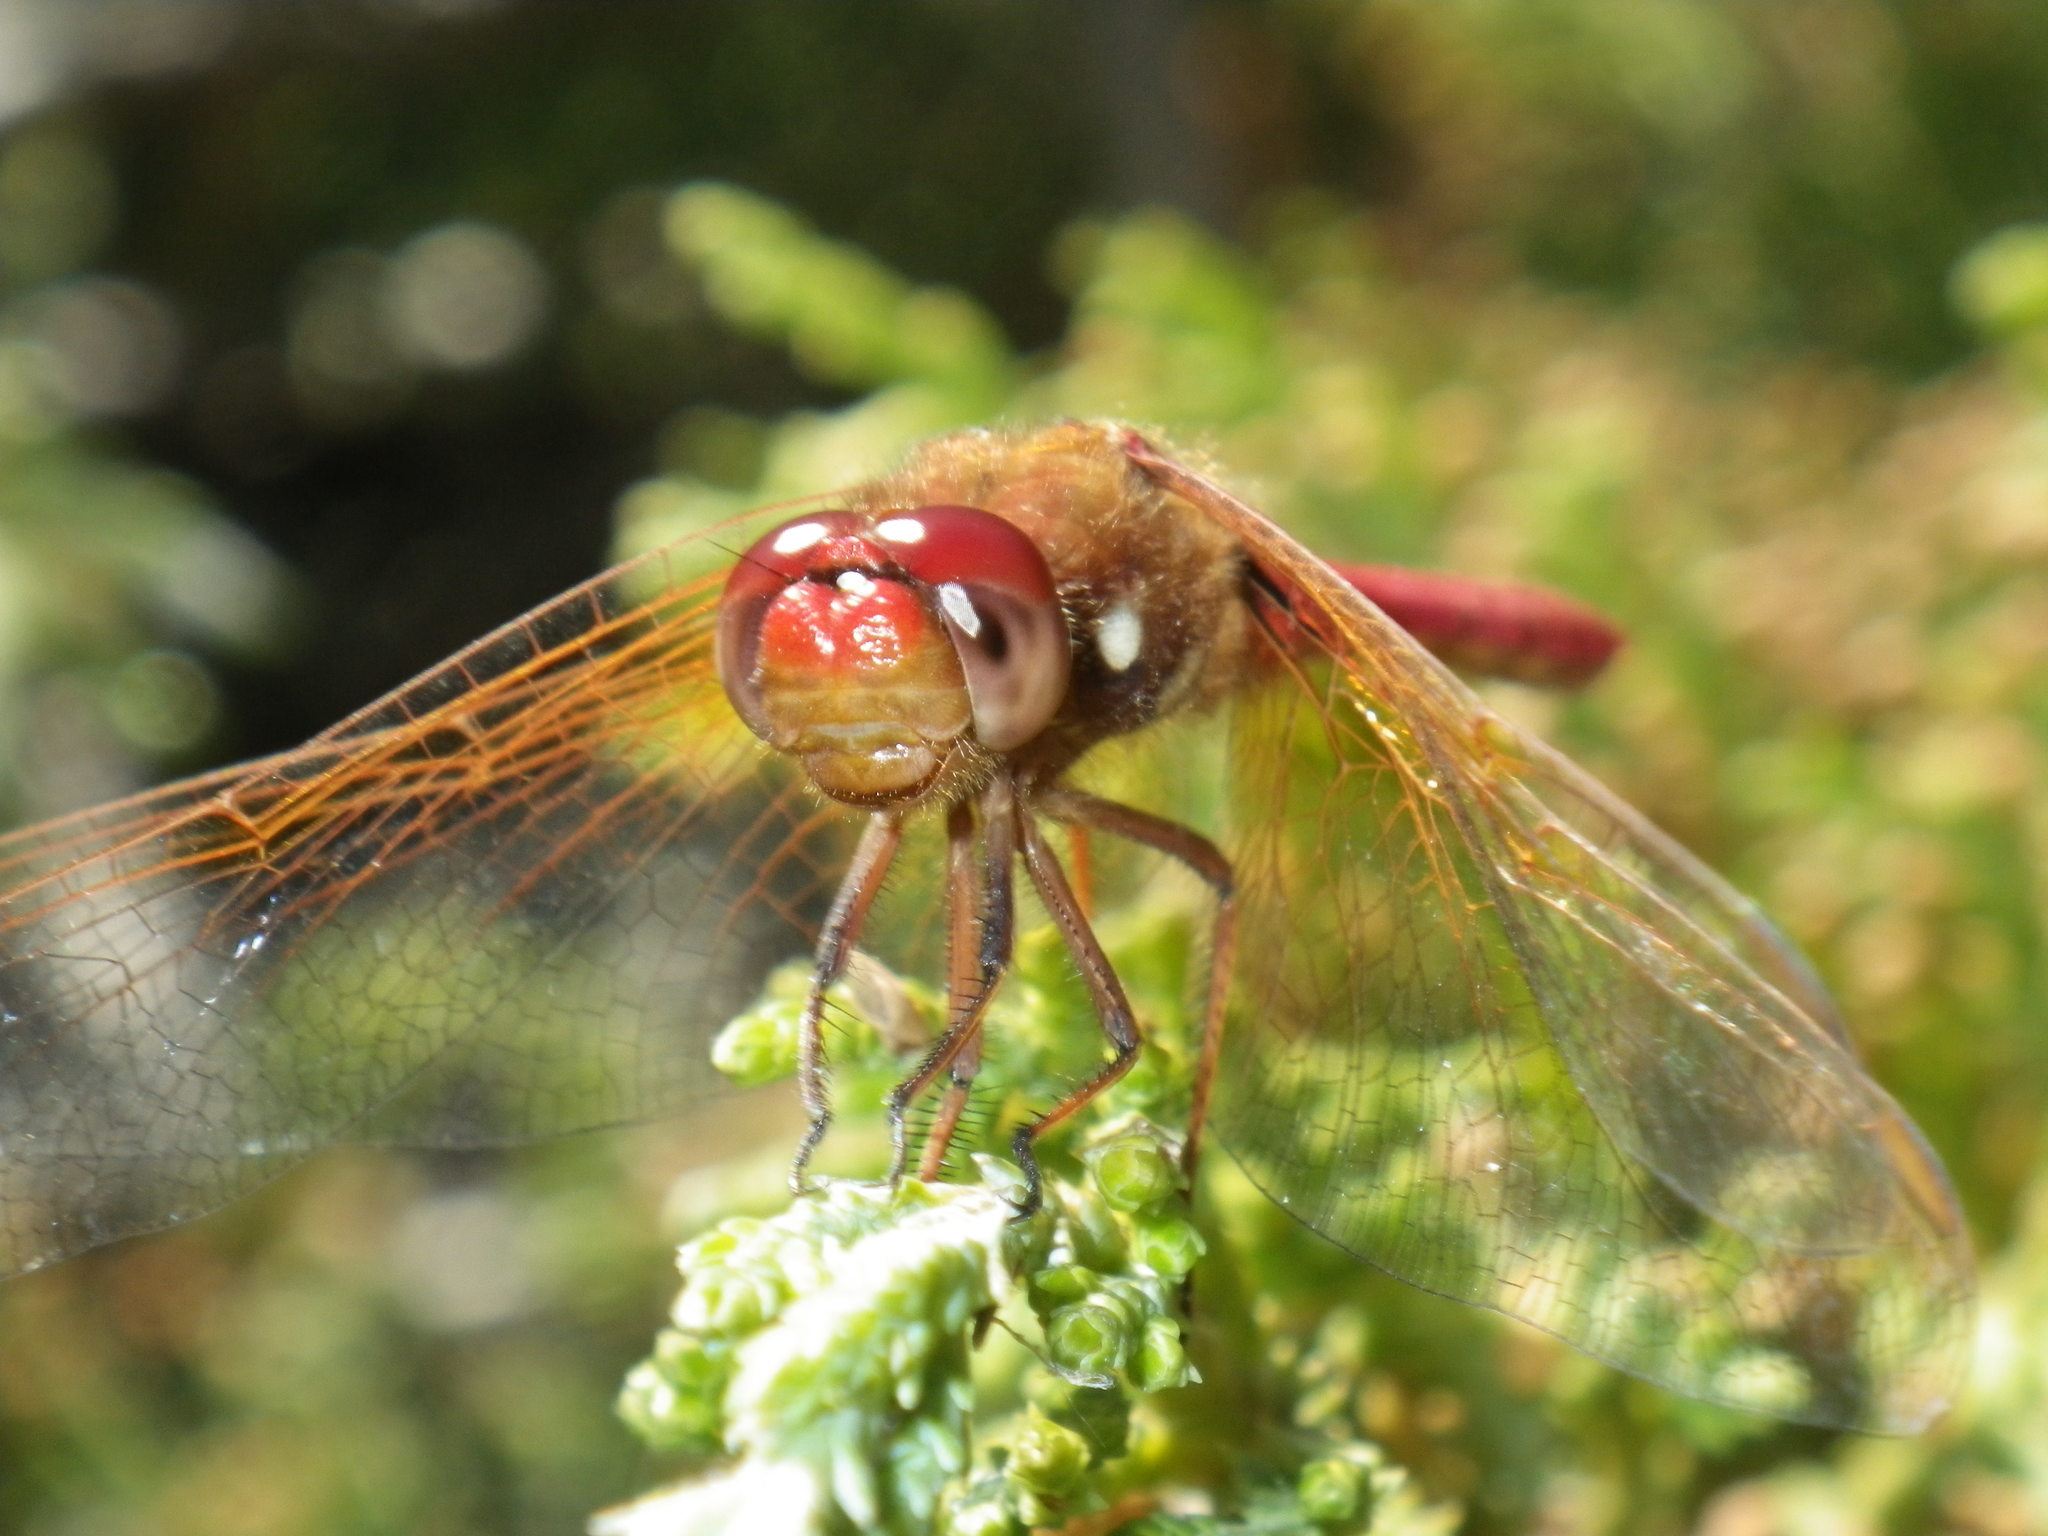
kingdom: Animalia
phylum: Arthropoda
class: Insecta
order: Odonata
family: Libellulidae
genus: Sympetrum
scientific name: Sympetrum illotum
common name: Cardinal meadowhawk
